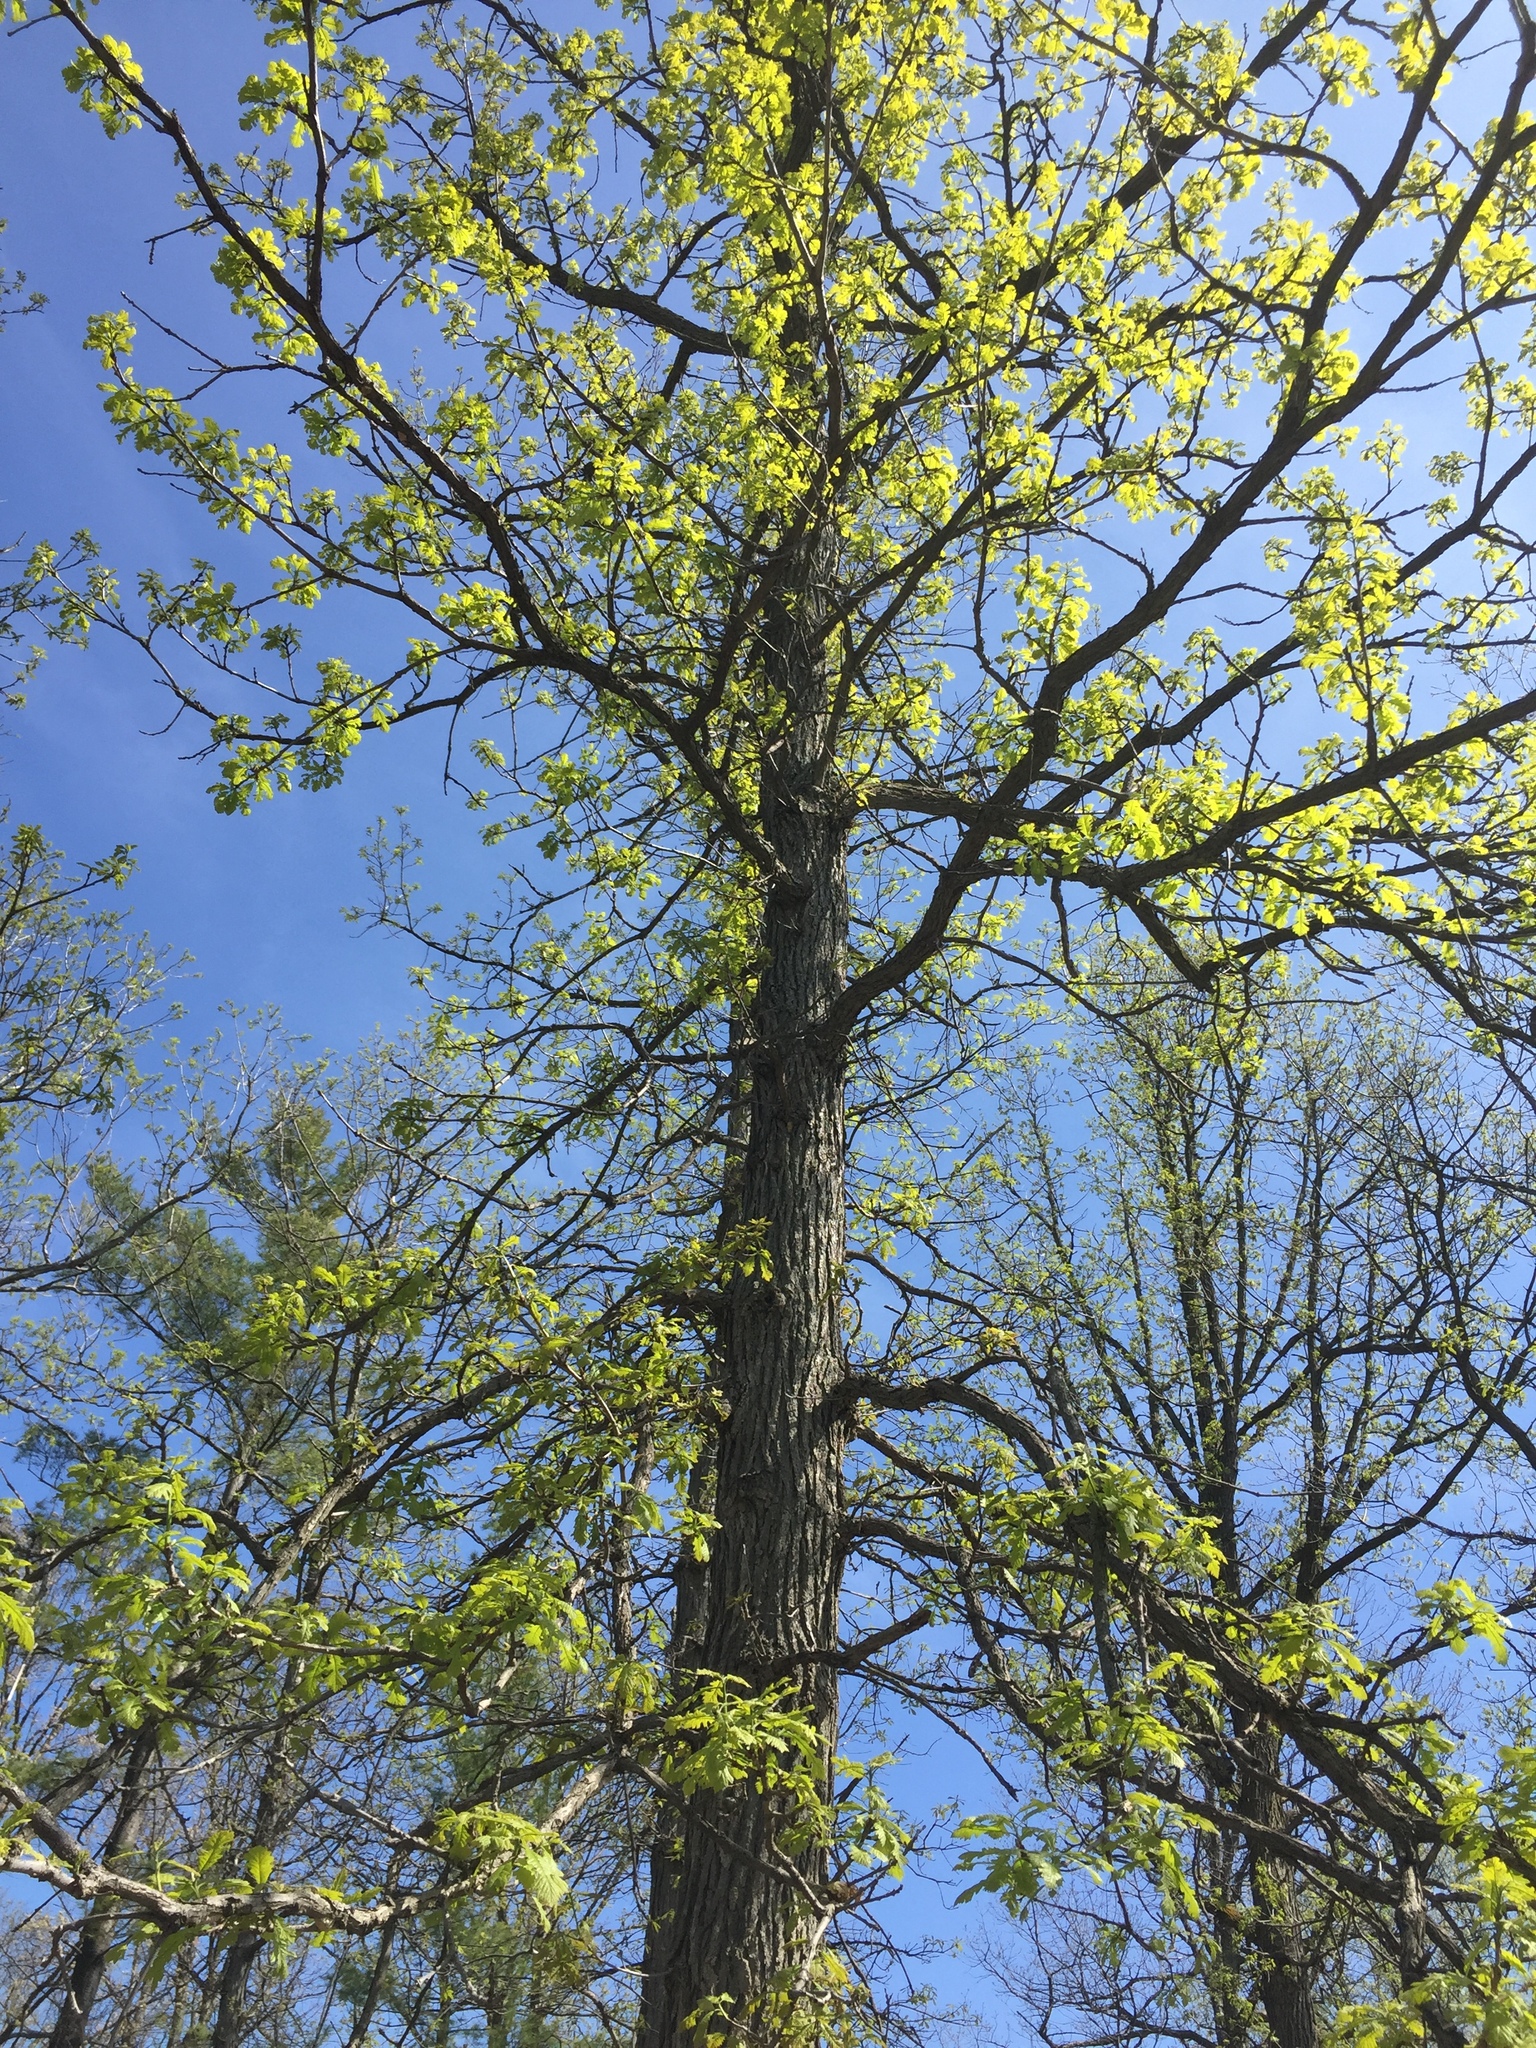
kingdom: Plantae
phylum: Tracheophyta
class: Magnoliopsida
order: Fagales
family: Fagaceae
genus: Quercus
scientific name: Quercus macrocarpa
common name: Bur oak
